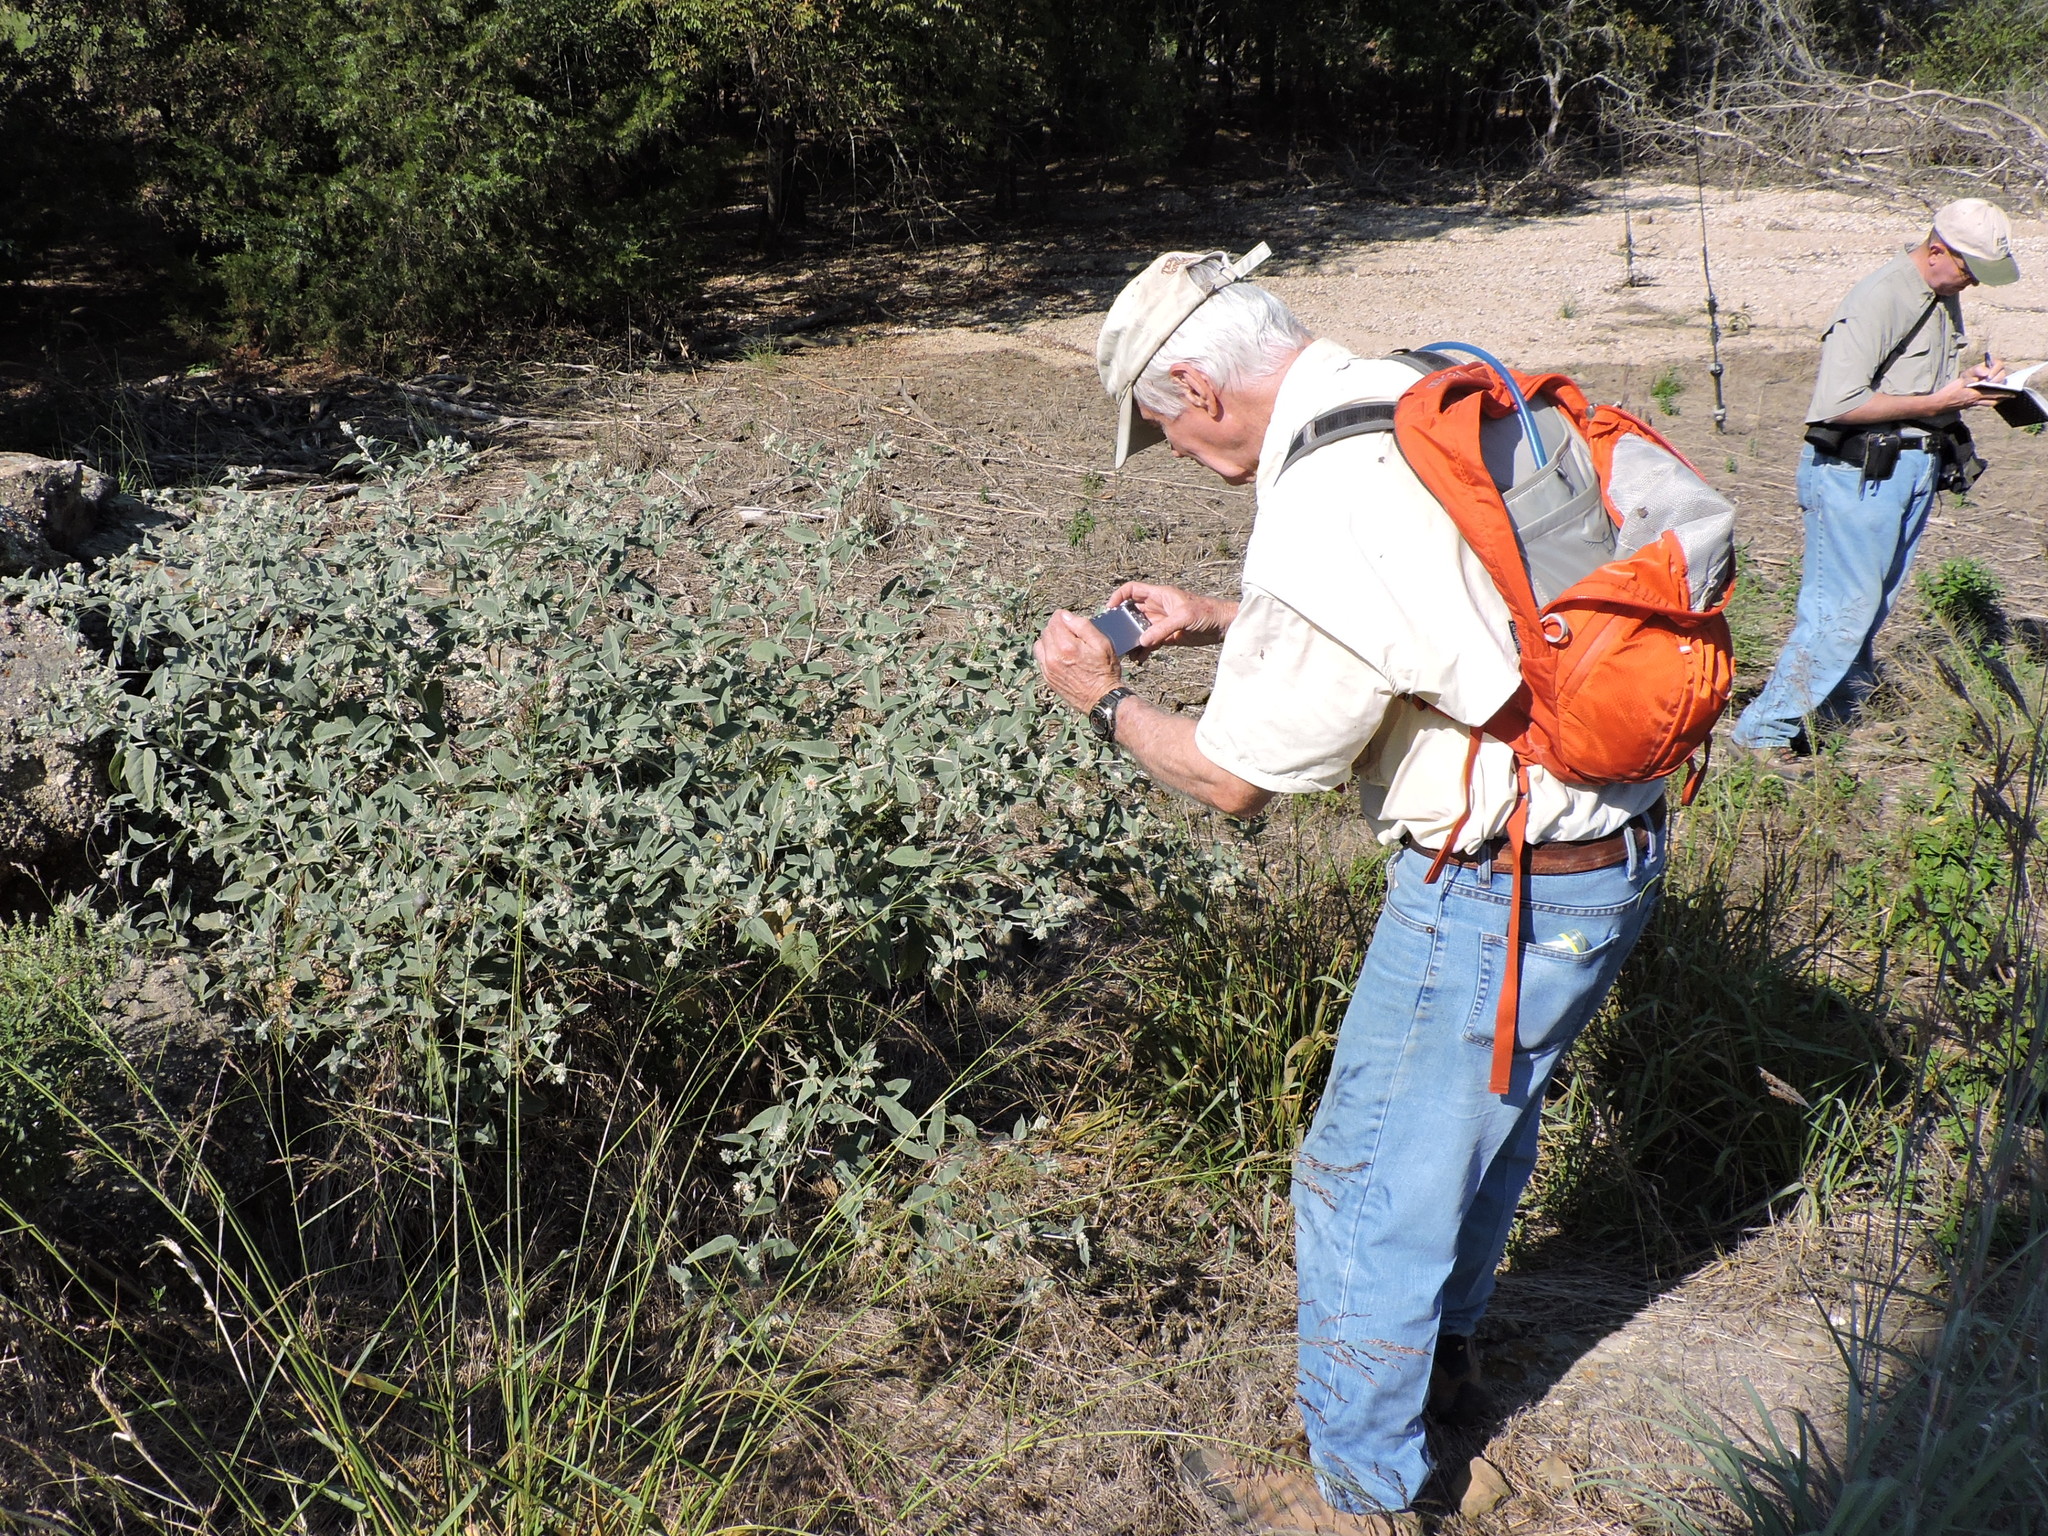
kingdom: Plantae
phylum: Tracheophyta
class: Magnoliopsida
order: Malpighiales
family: Euphorbiaceae
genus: Croton
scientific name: Croton lindheimeri
